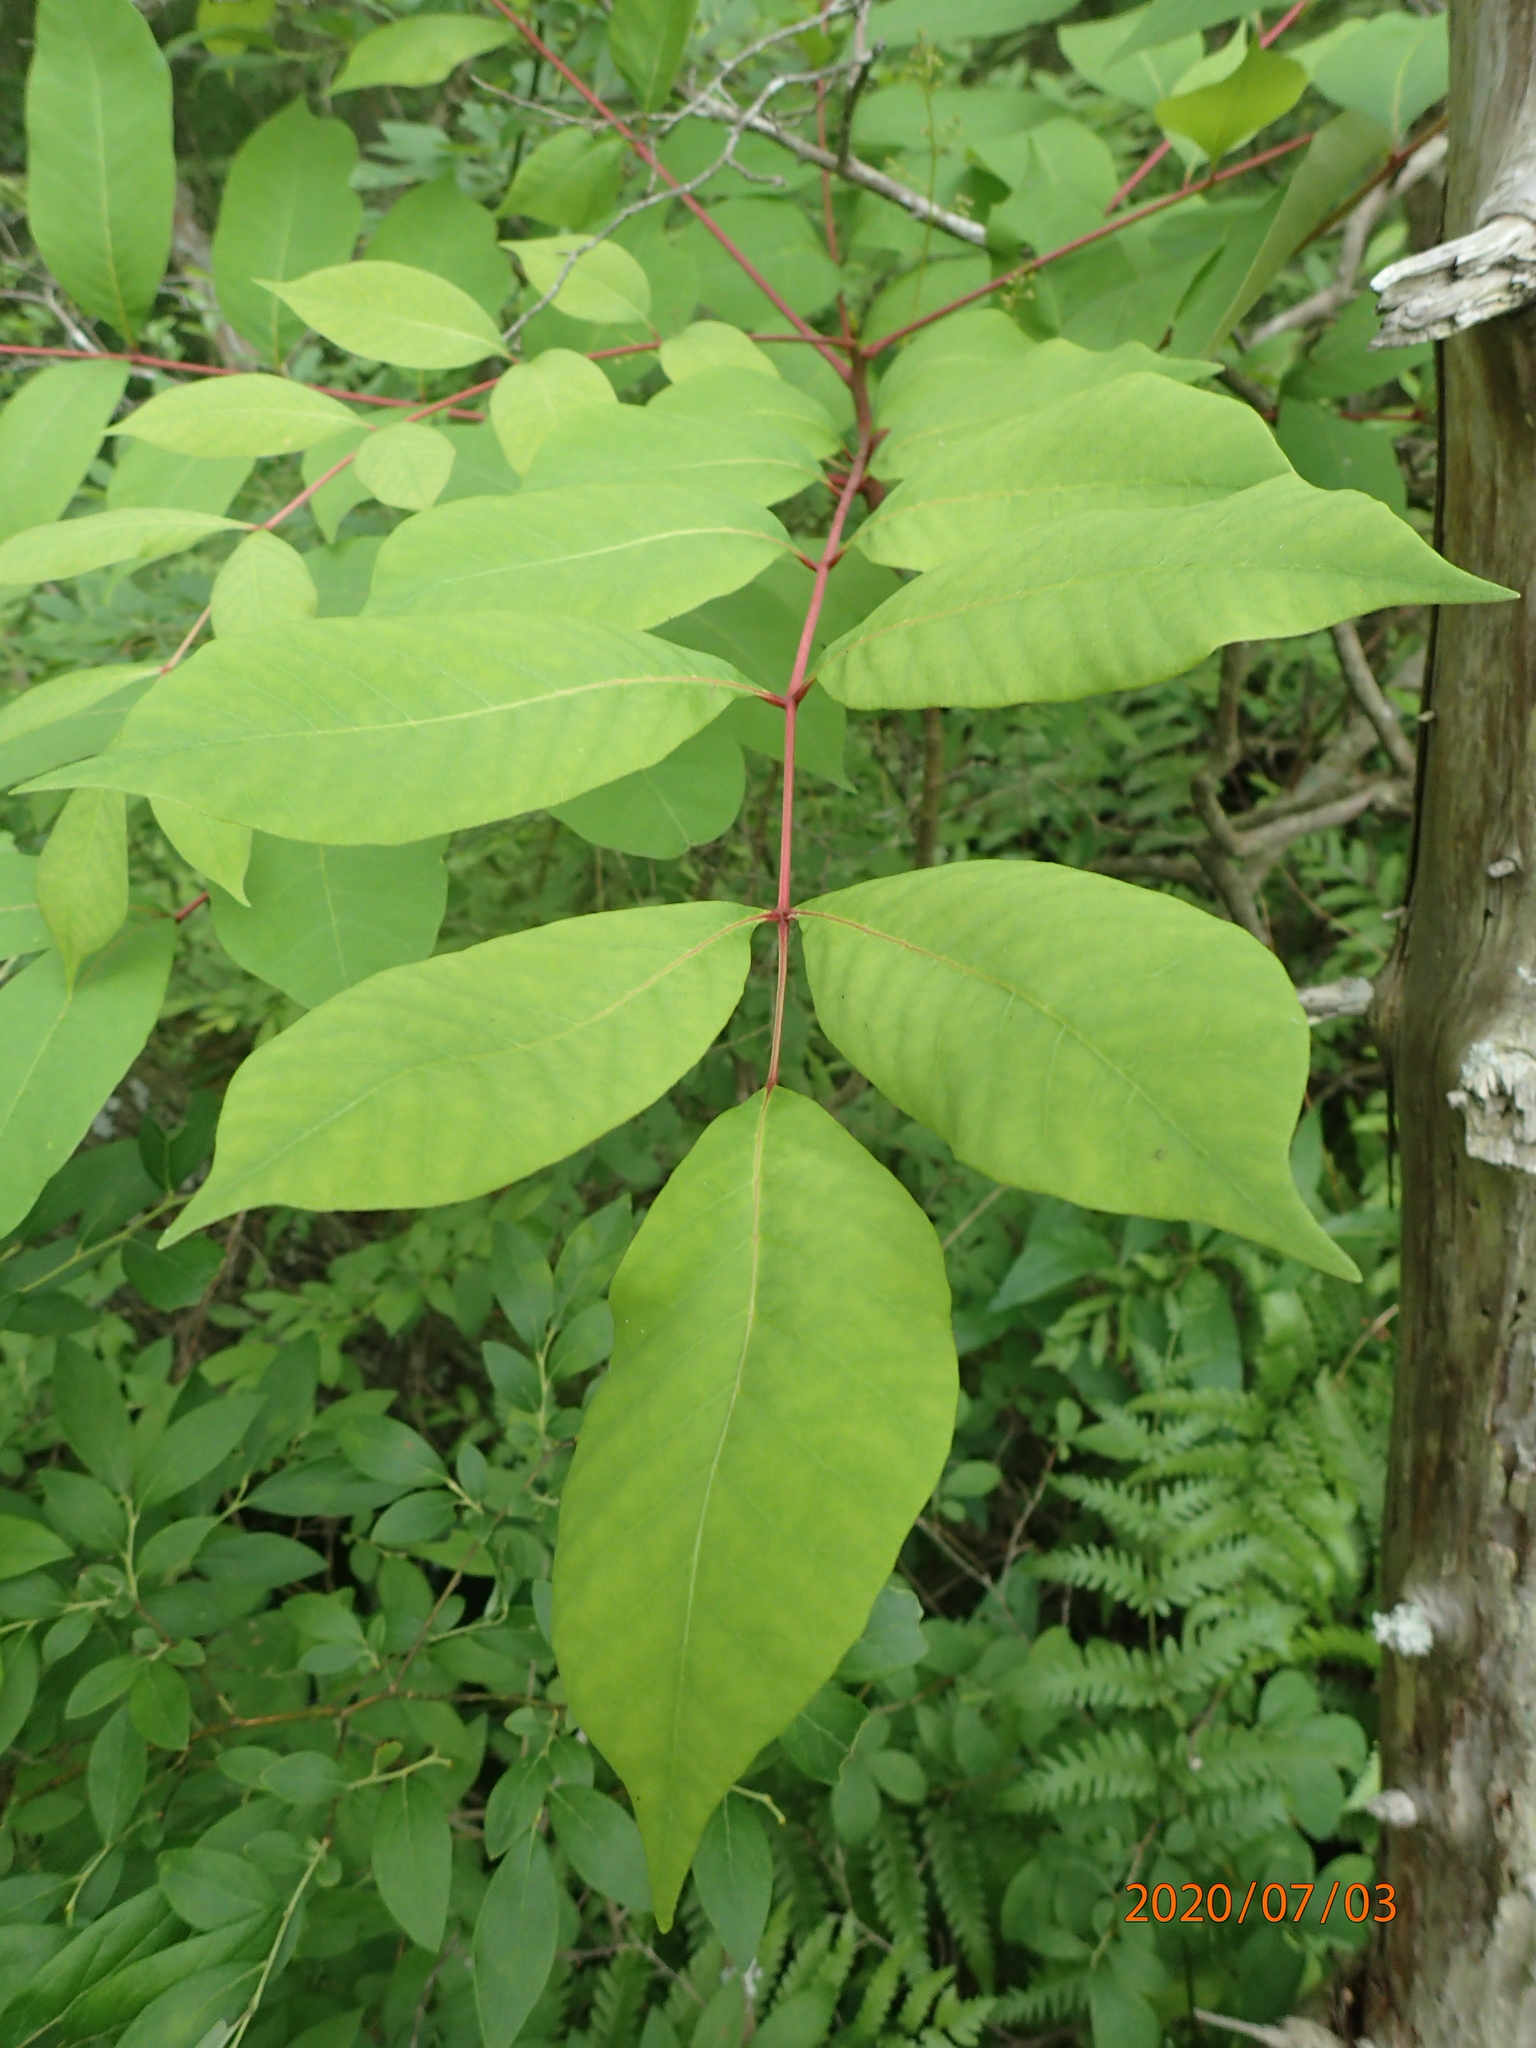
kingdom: Plantae
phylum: Tracheophyta
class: Magnoliopsida
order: Sapindales
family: Anacardiaceae
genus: Toxicodendron
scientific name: Toxicodendron vernix
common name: Poison sumac
